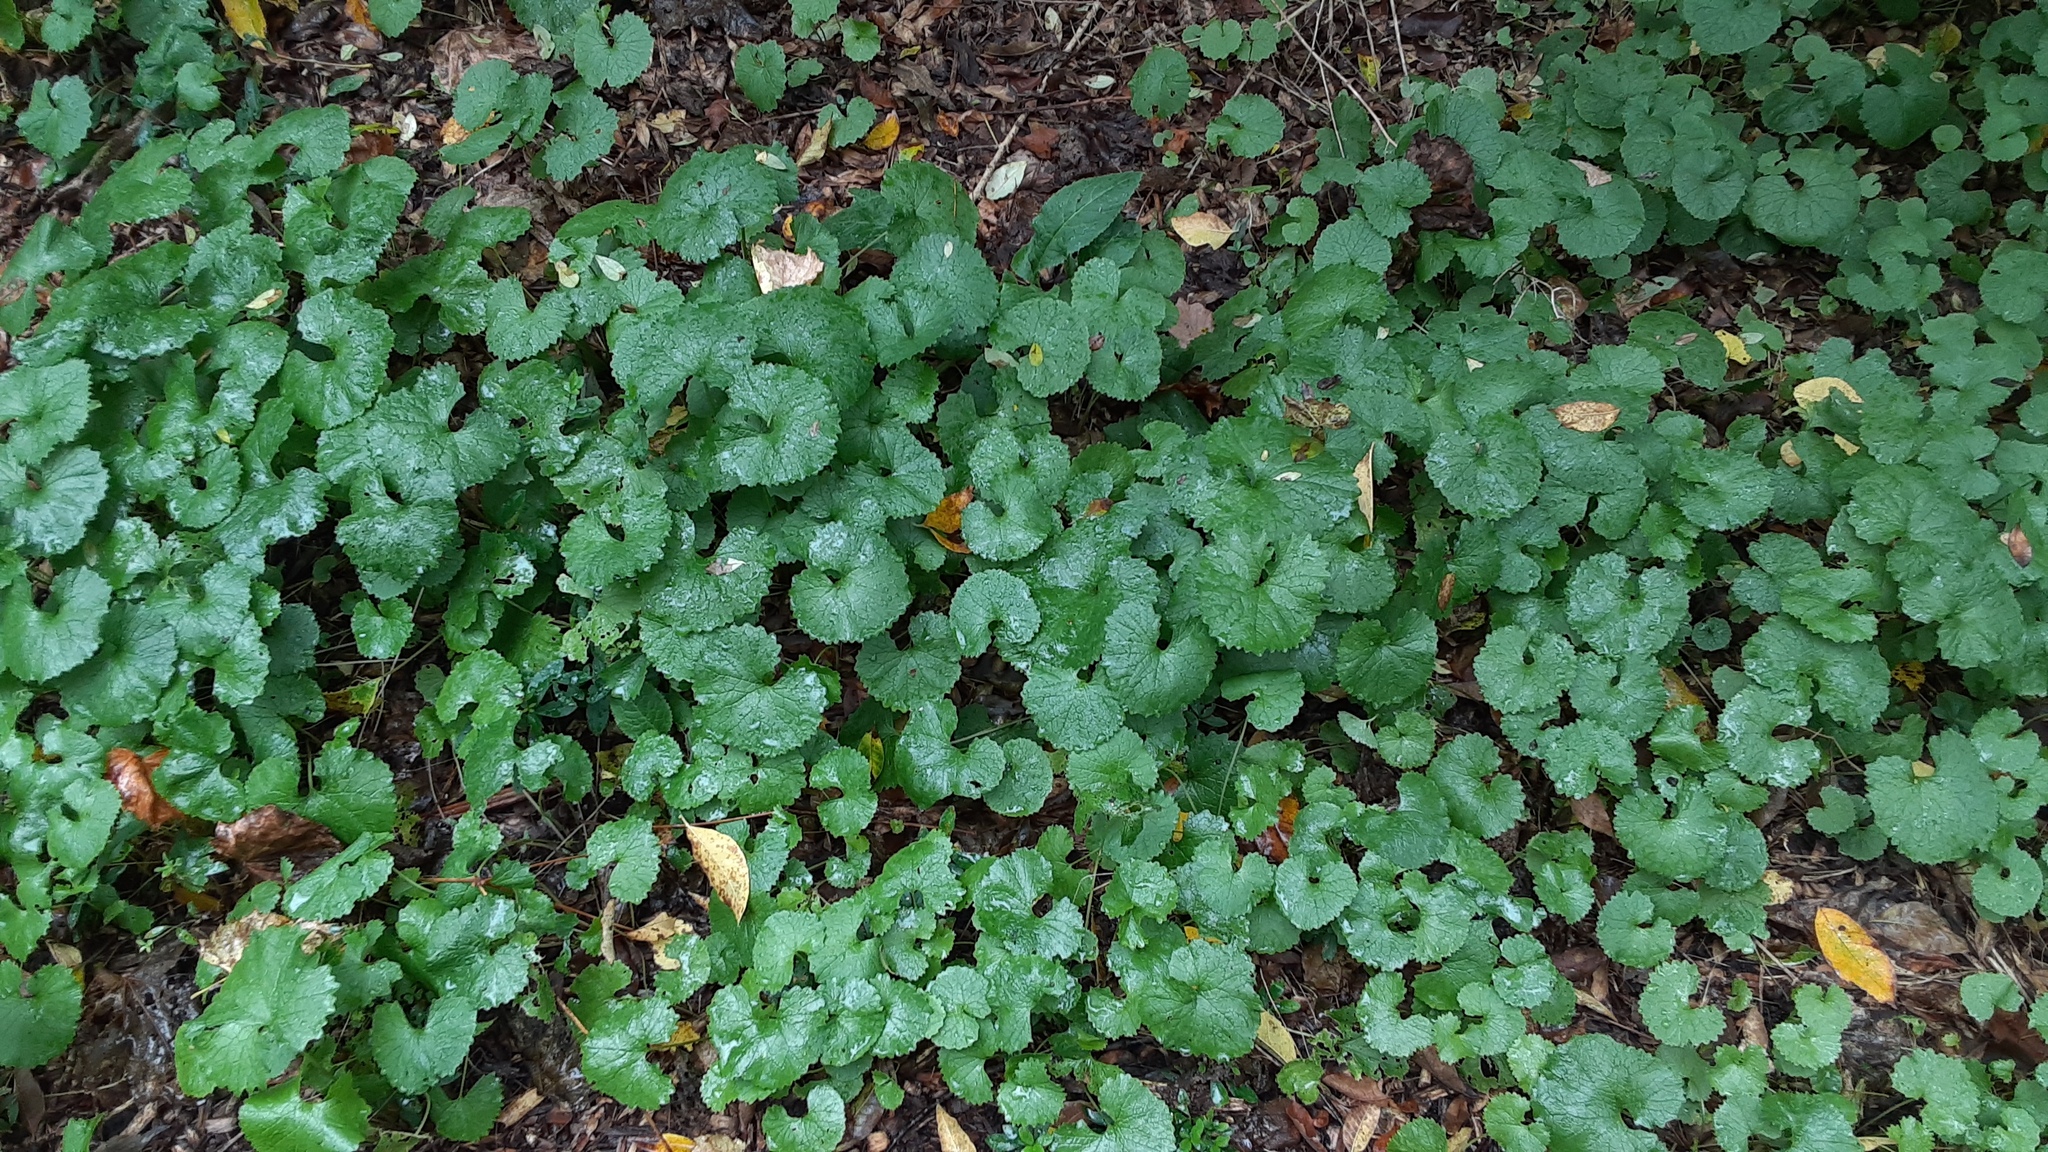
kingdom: Plantae
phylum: Tracheophyta
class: Magnoliopsida
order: Brassicales
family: Brassicaceae
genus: Alliaria
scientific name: Alliaria petiolata
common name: Garlic mustard
